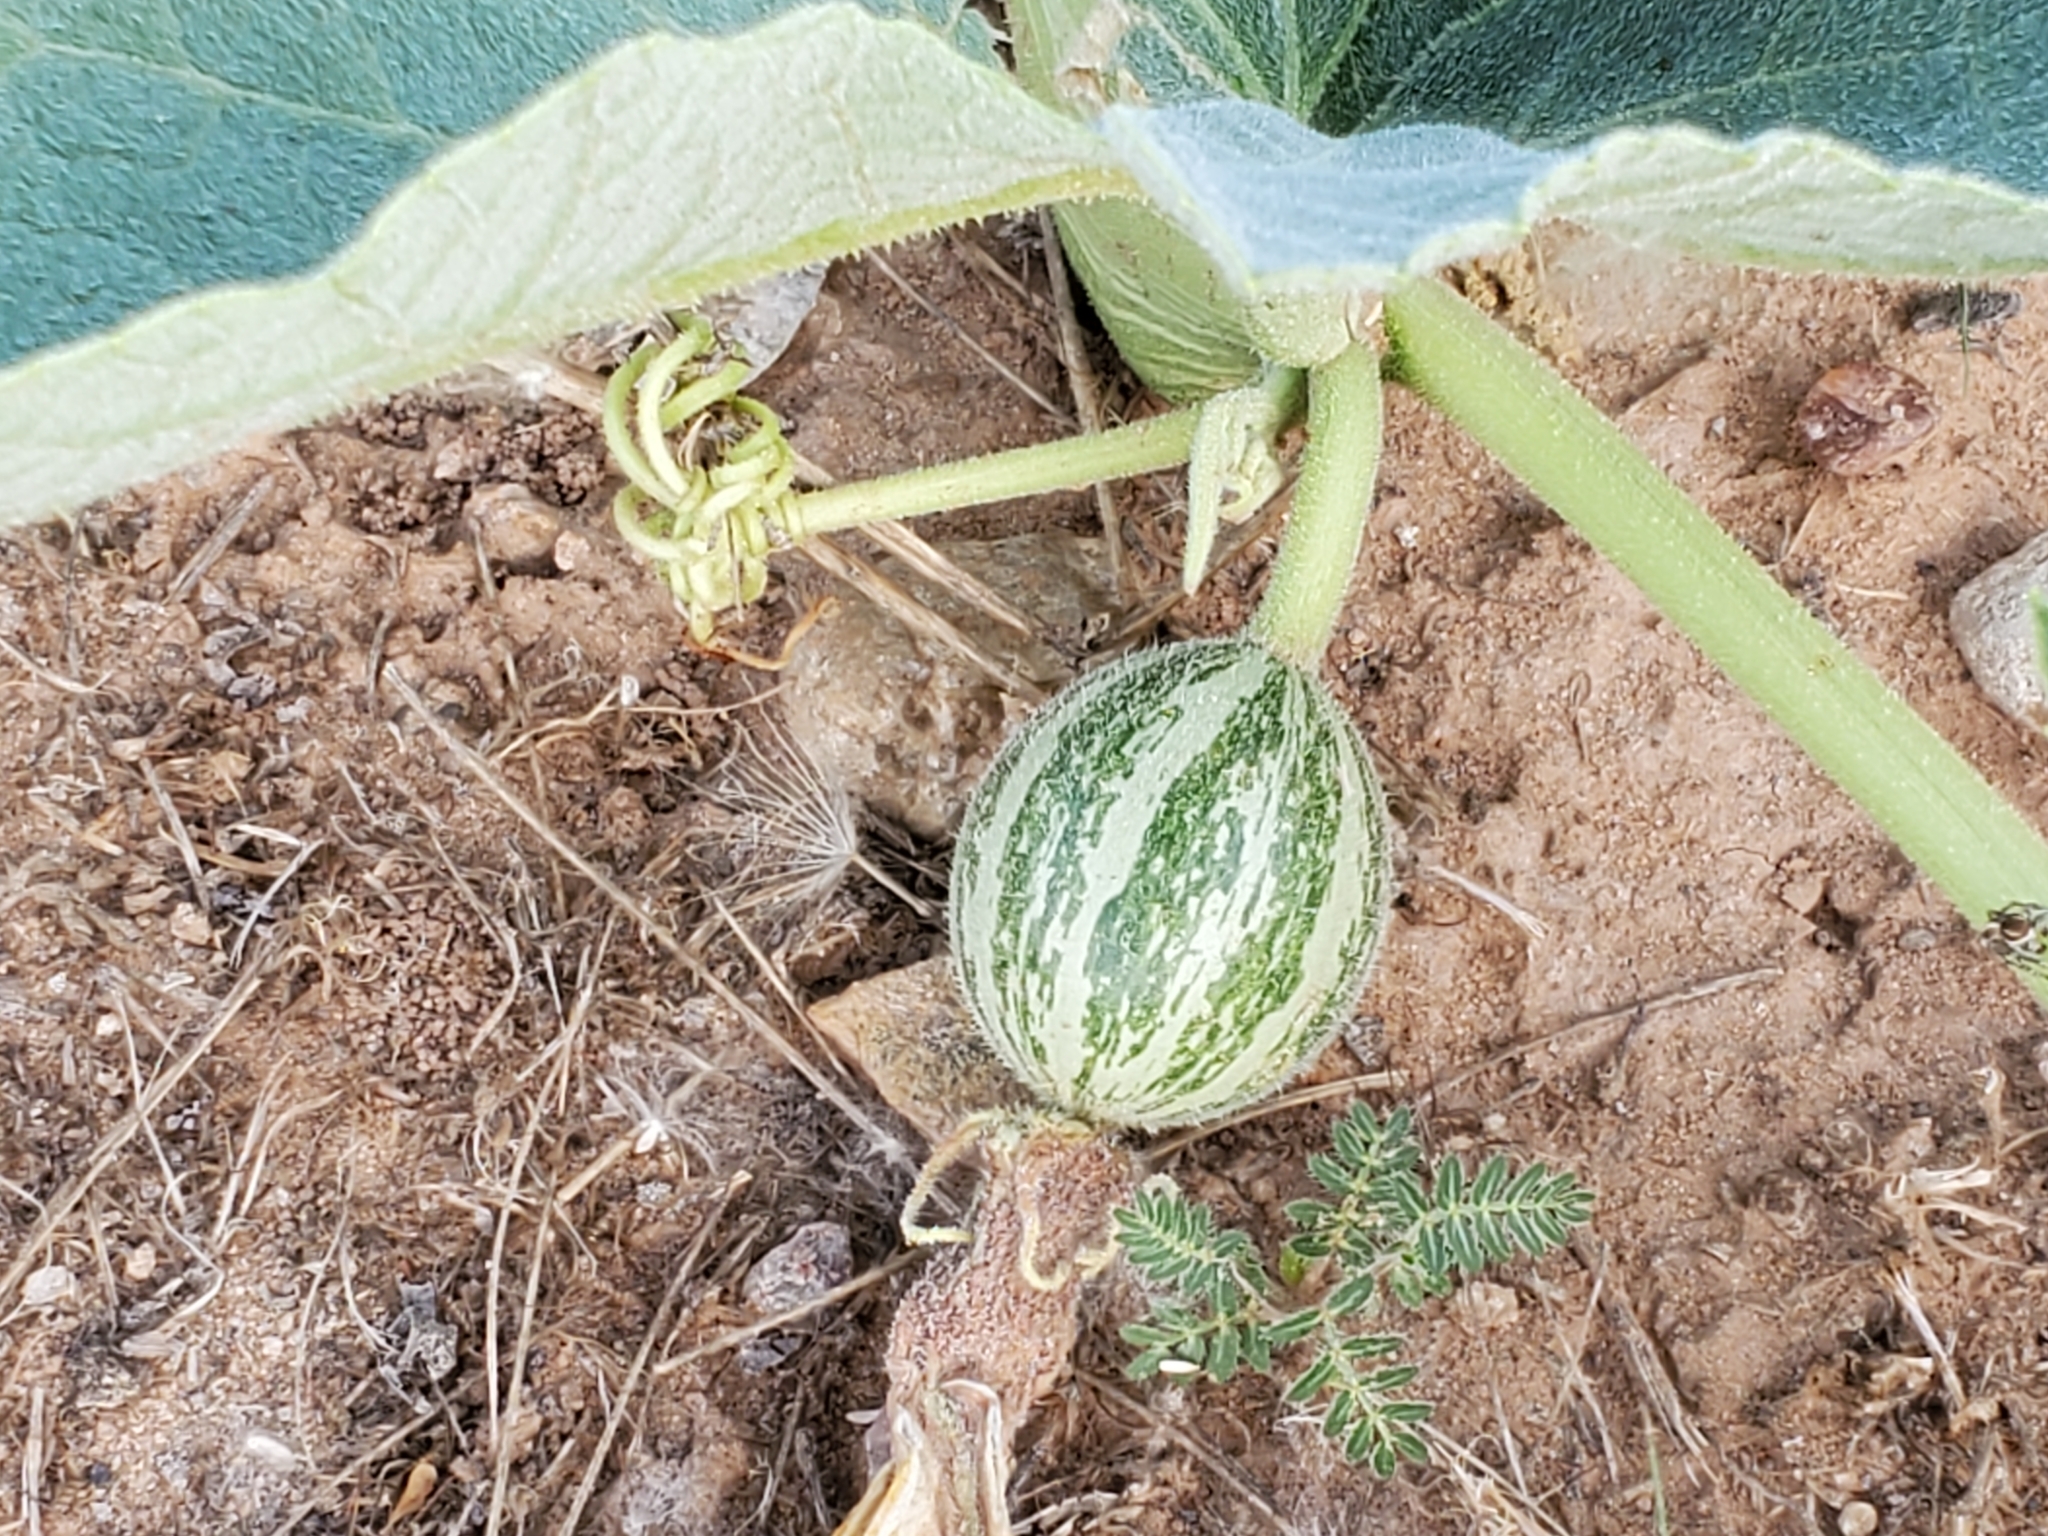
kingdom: Plantae
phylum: Tracheophyta
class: Magnoliopsida
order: Cucurbitales
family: Cucurbitaceae
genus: Cucurbita
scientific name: Cucurbita foetidissima
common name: Buffalo gourd
